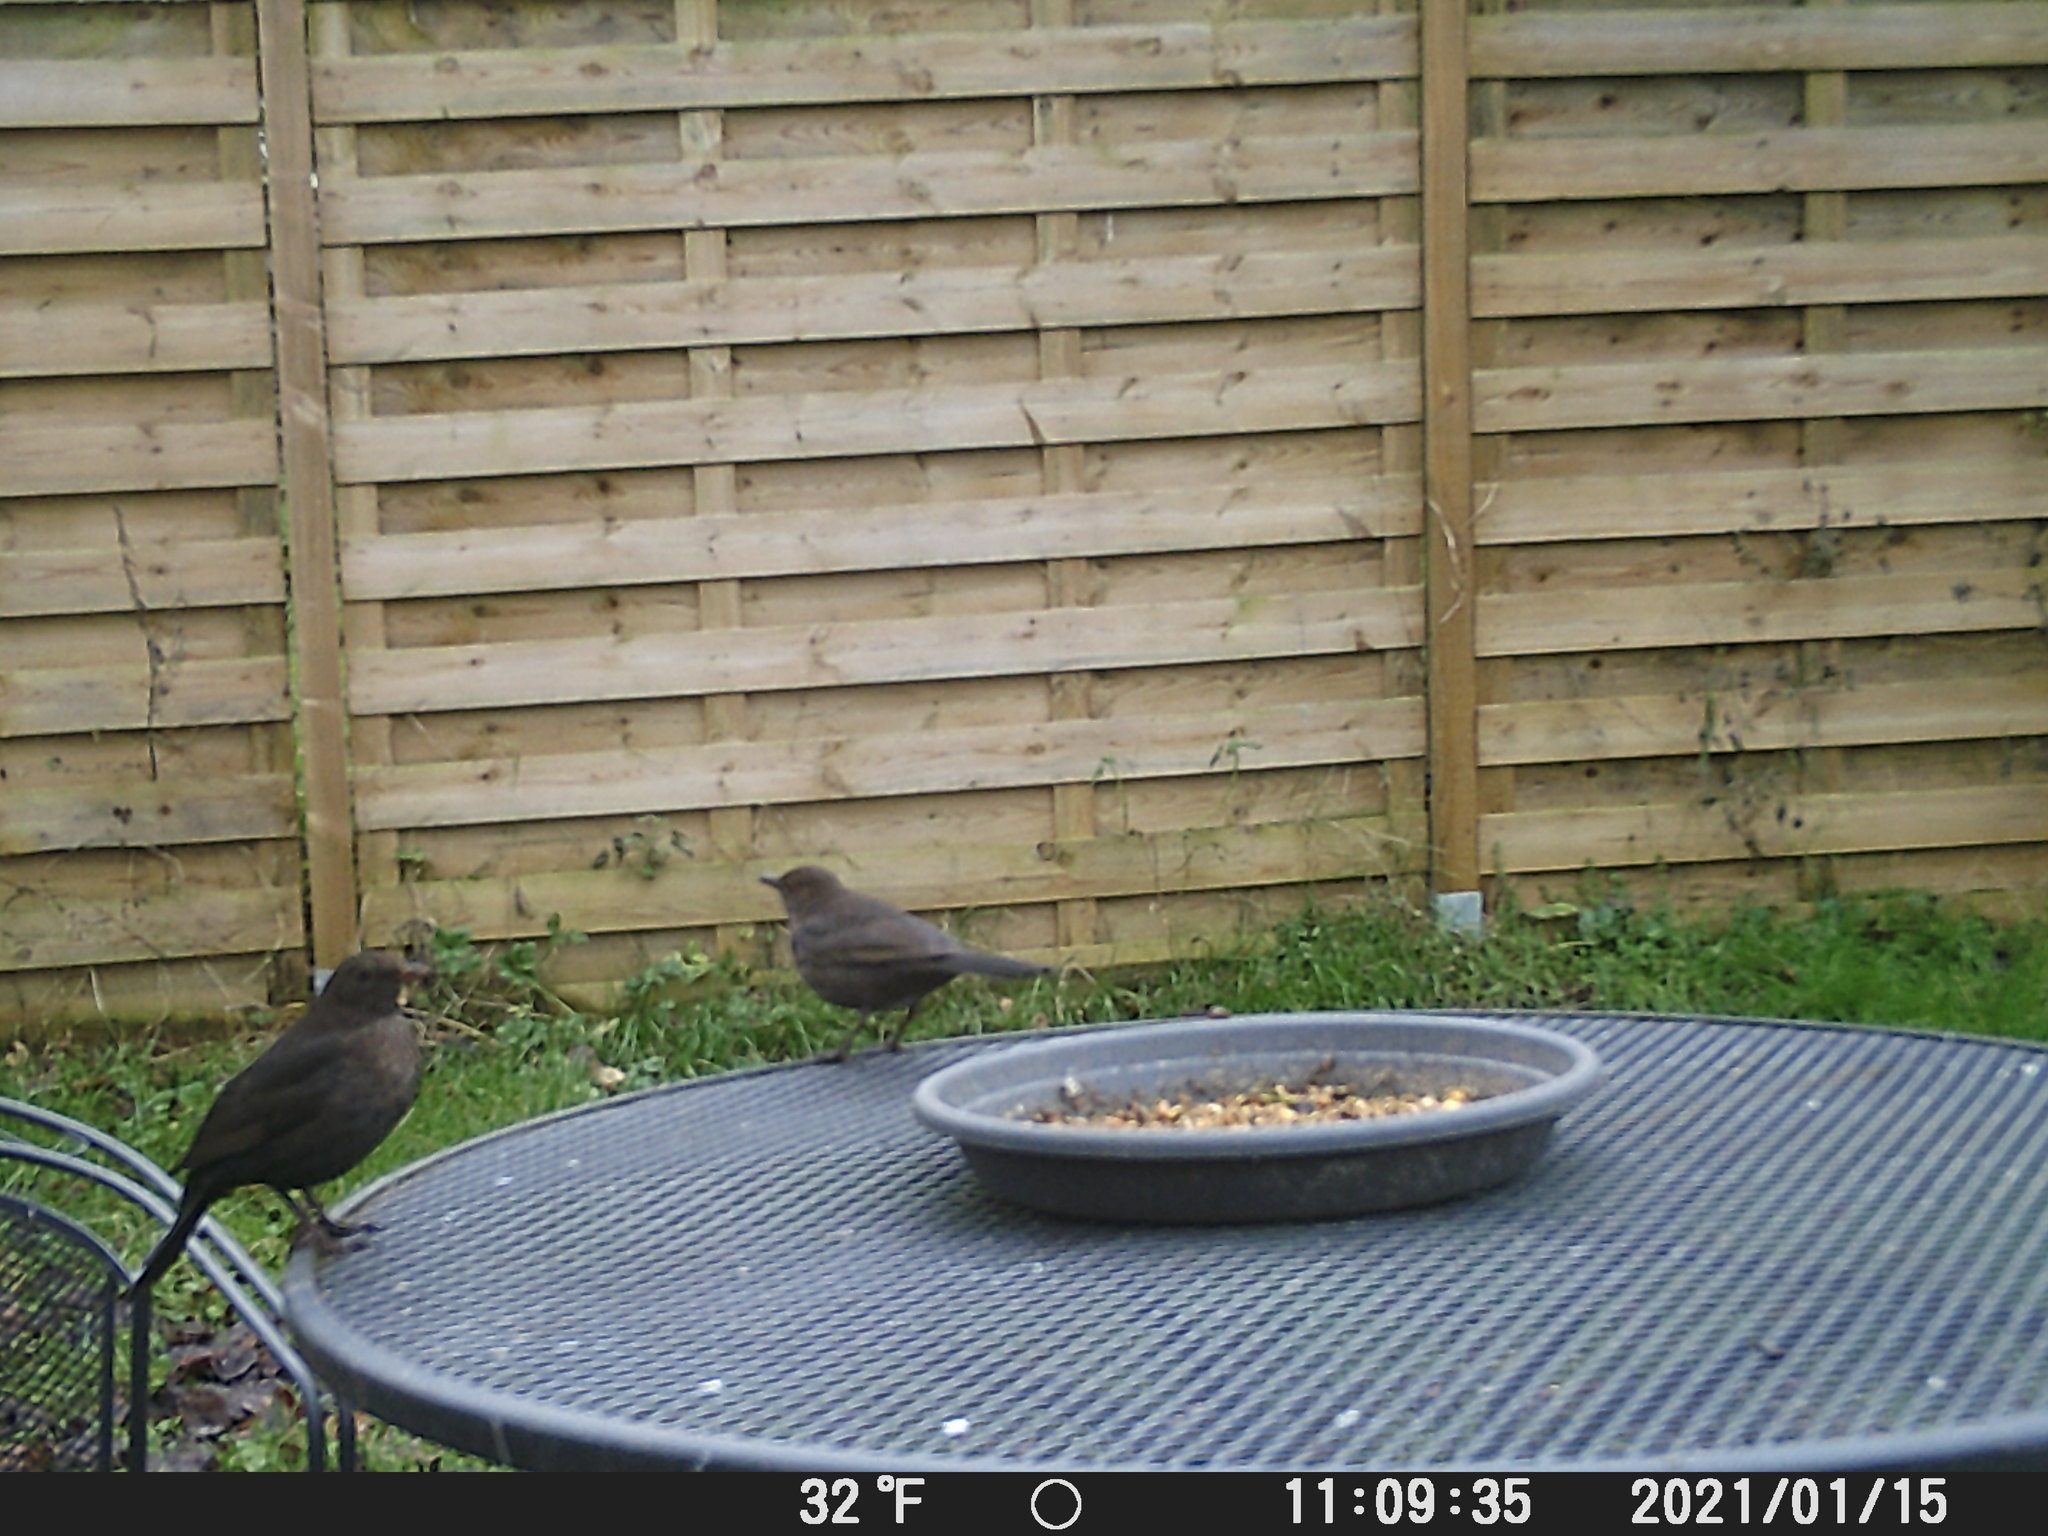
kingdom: Animalia
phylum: Chordata
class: Aves
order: Passeriformes
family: Turdidae
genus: Turdus
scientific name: Turdus merula
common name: Common blackbird
